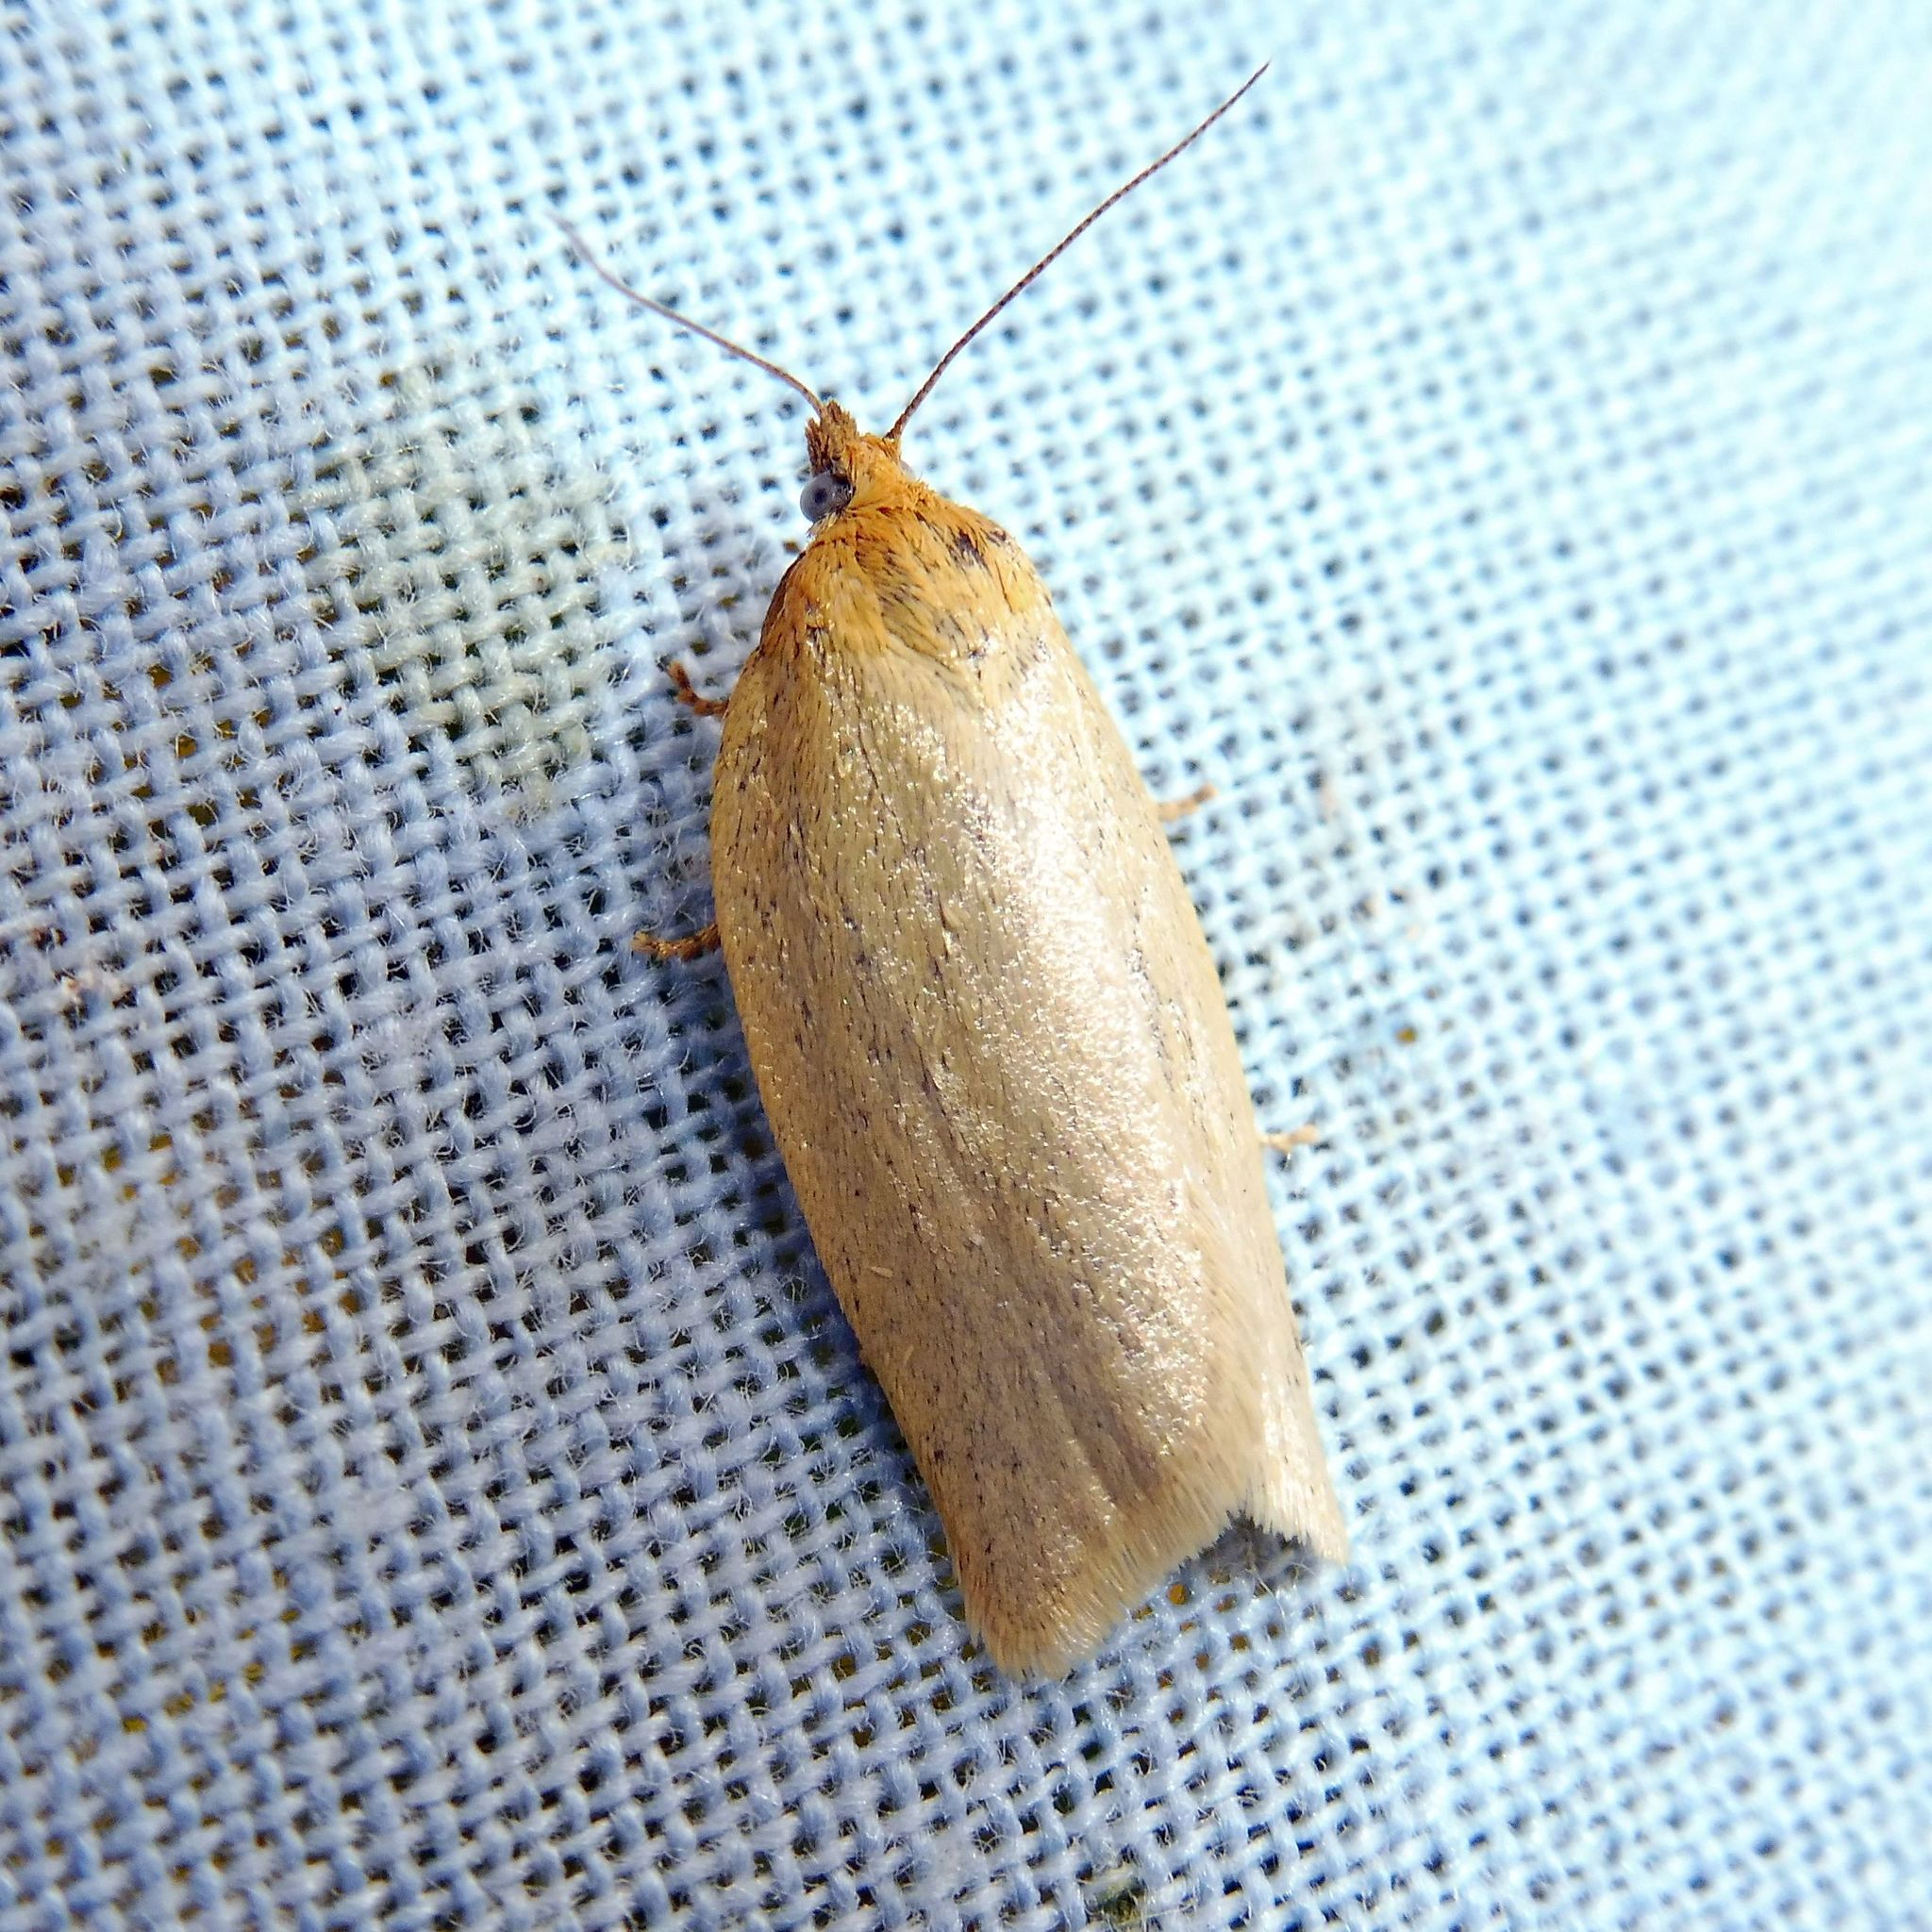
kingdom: Animalia
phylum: Arthropoda
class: Insecta
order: Lepidoptera
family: Tortricidae
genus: Aphelia
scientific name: Aphelia Zelotherses paleana
